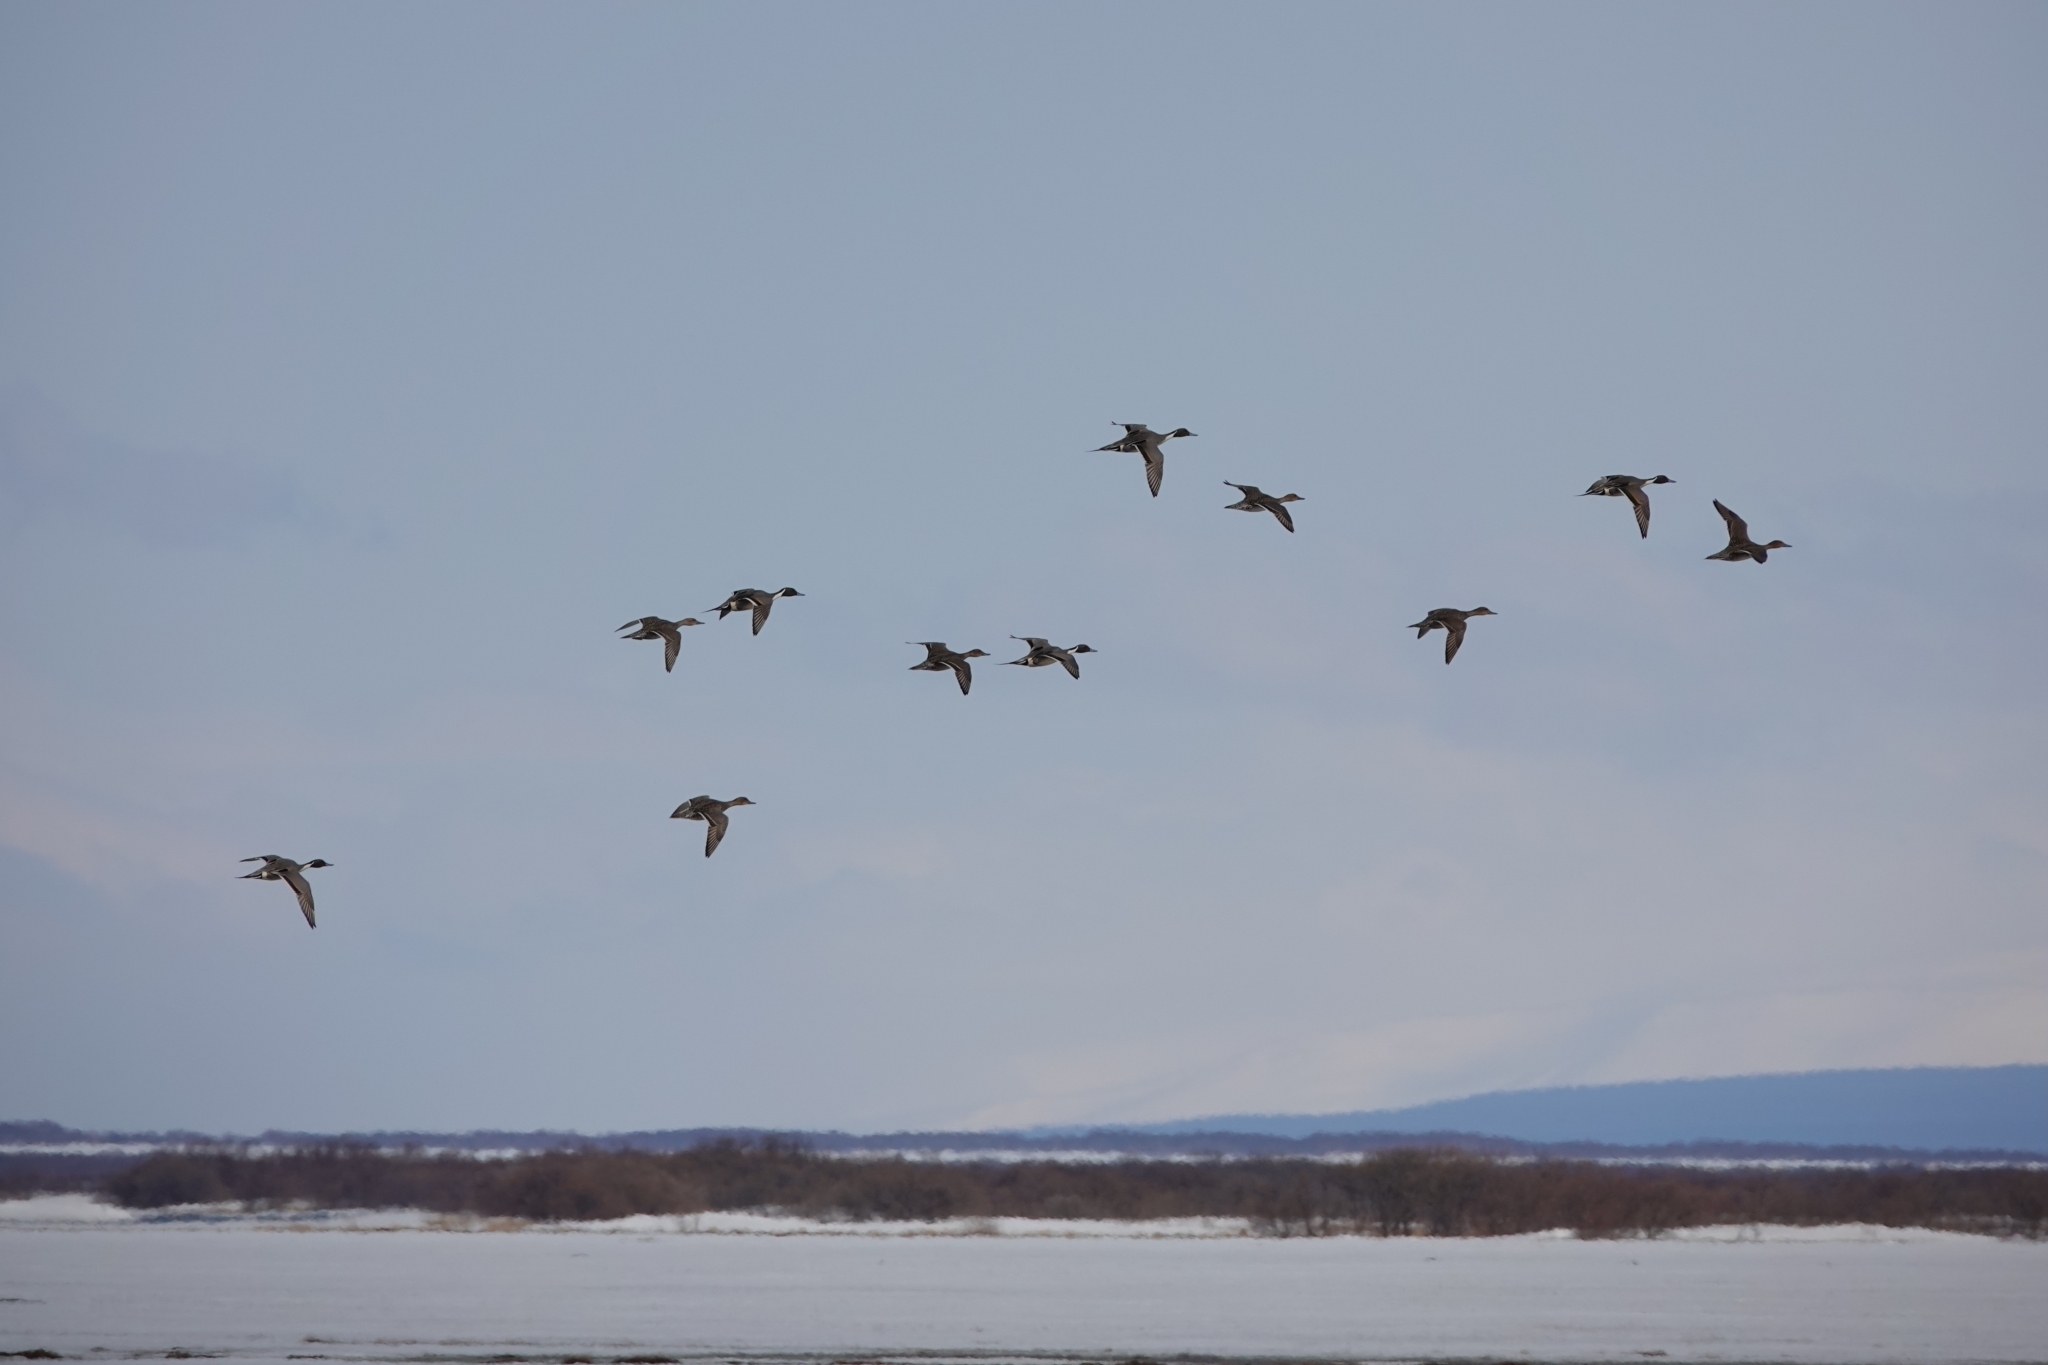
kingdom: Animalia
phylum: Chordata
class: Aves
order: Anseriformes
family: Anatidae
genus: Anas
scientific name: Anas acuta
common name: Northern pintail
